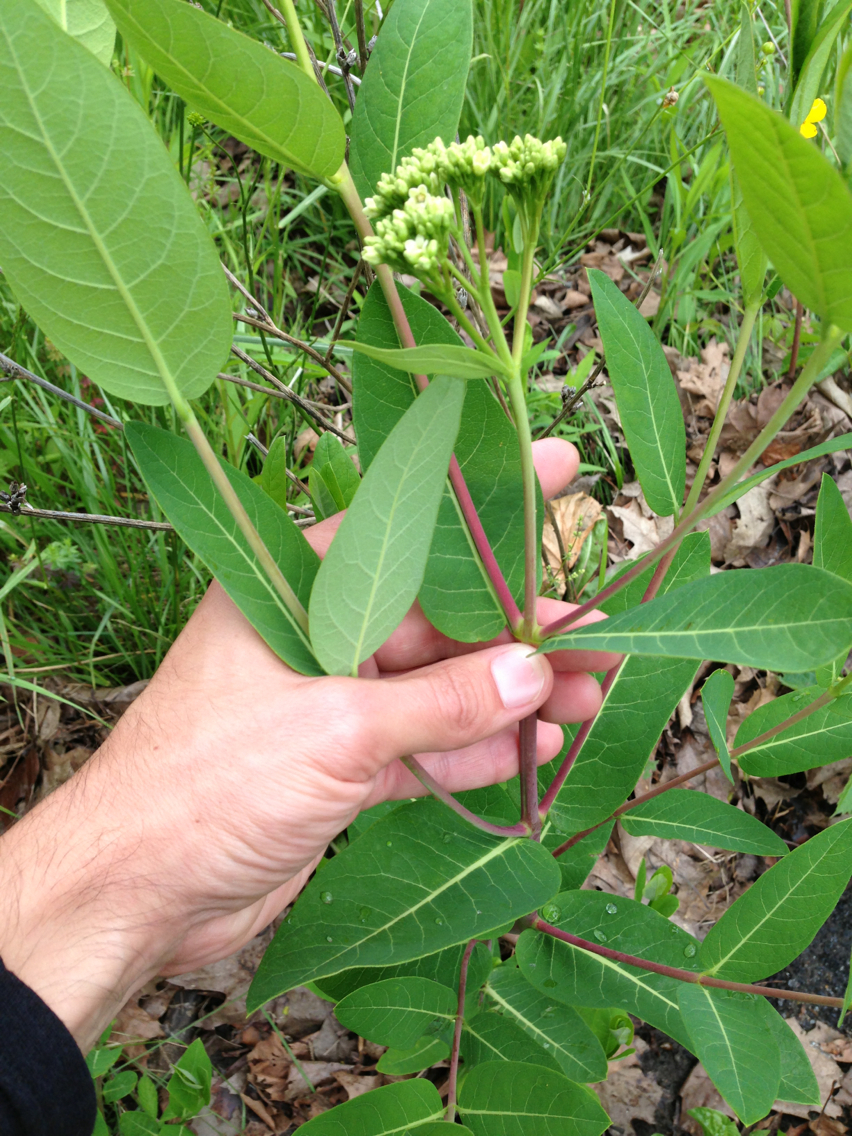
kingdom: Plantae
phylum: Tracheophyta
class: Magnoliopsida
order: Gentianales
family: Apocynaceae
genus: Apocynum
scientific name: Apocynum cannabinum
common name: Hemp dogbane
